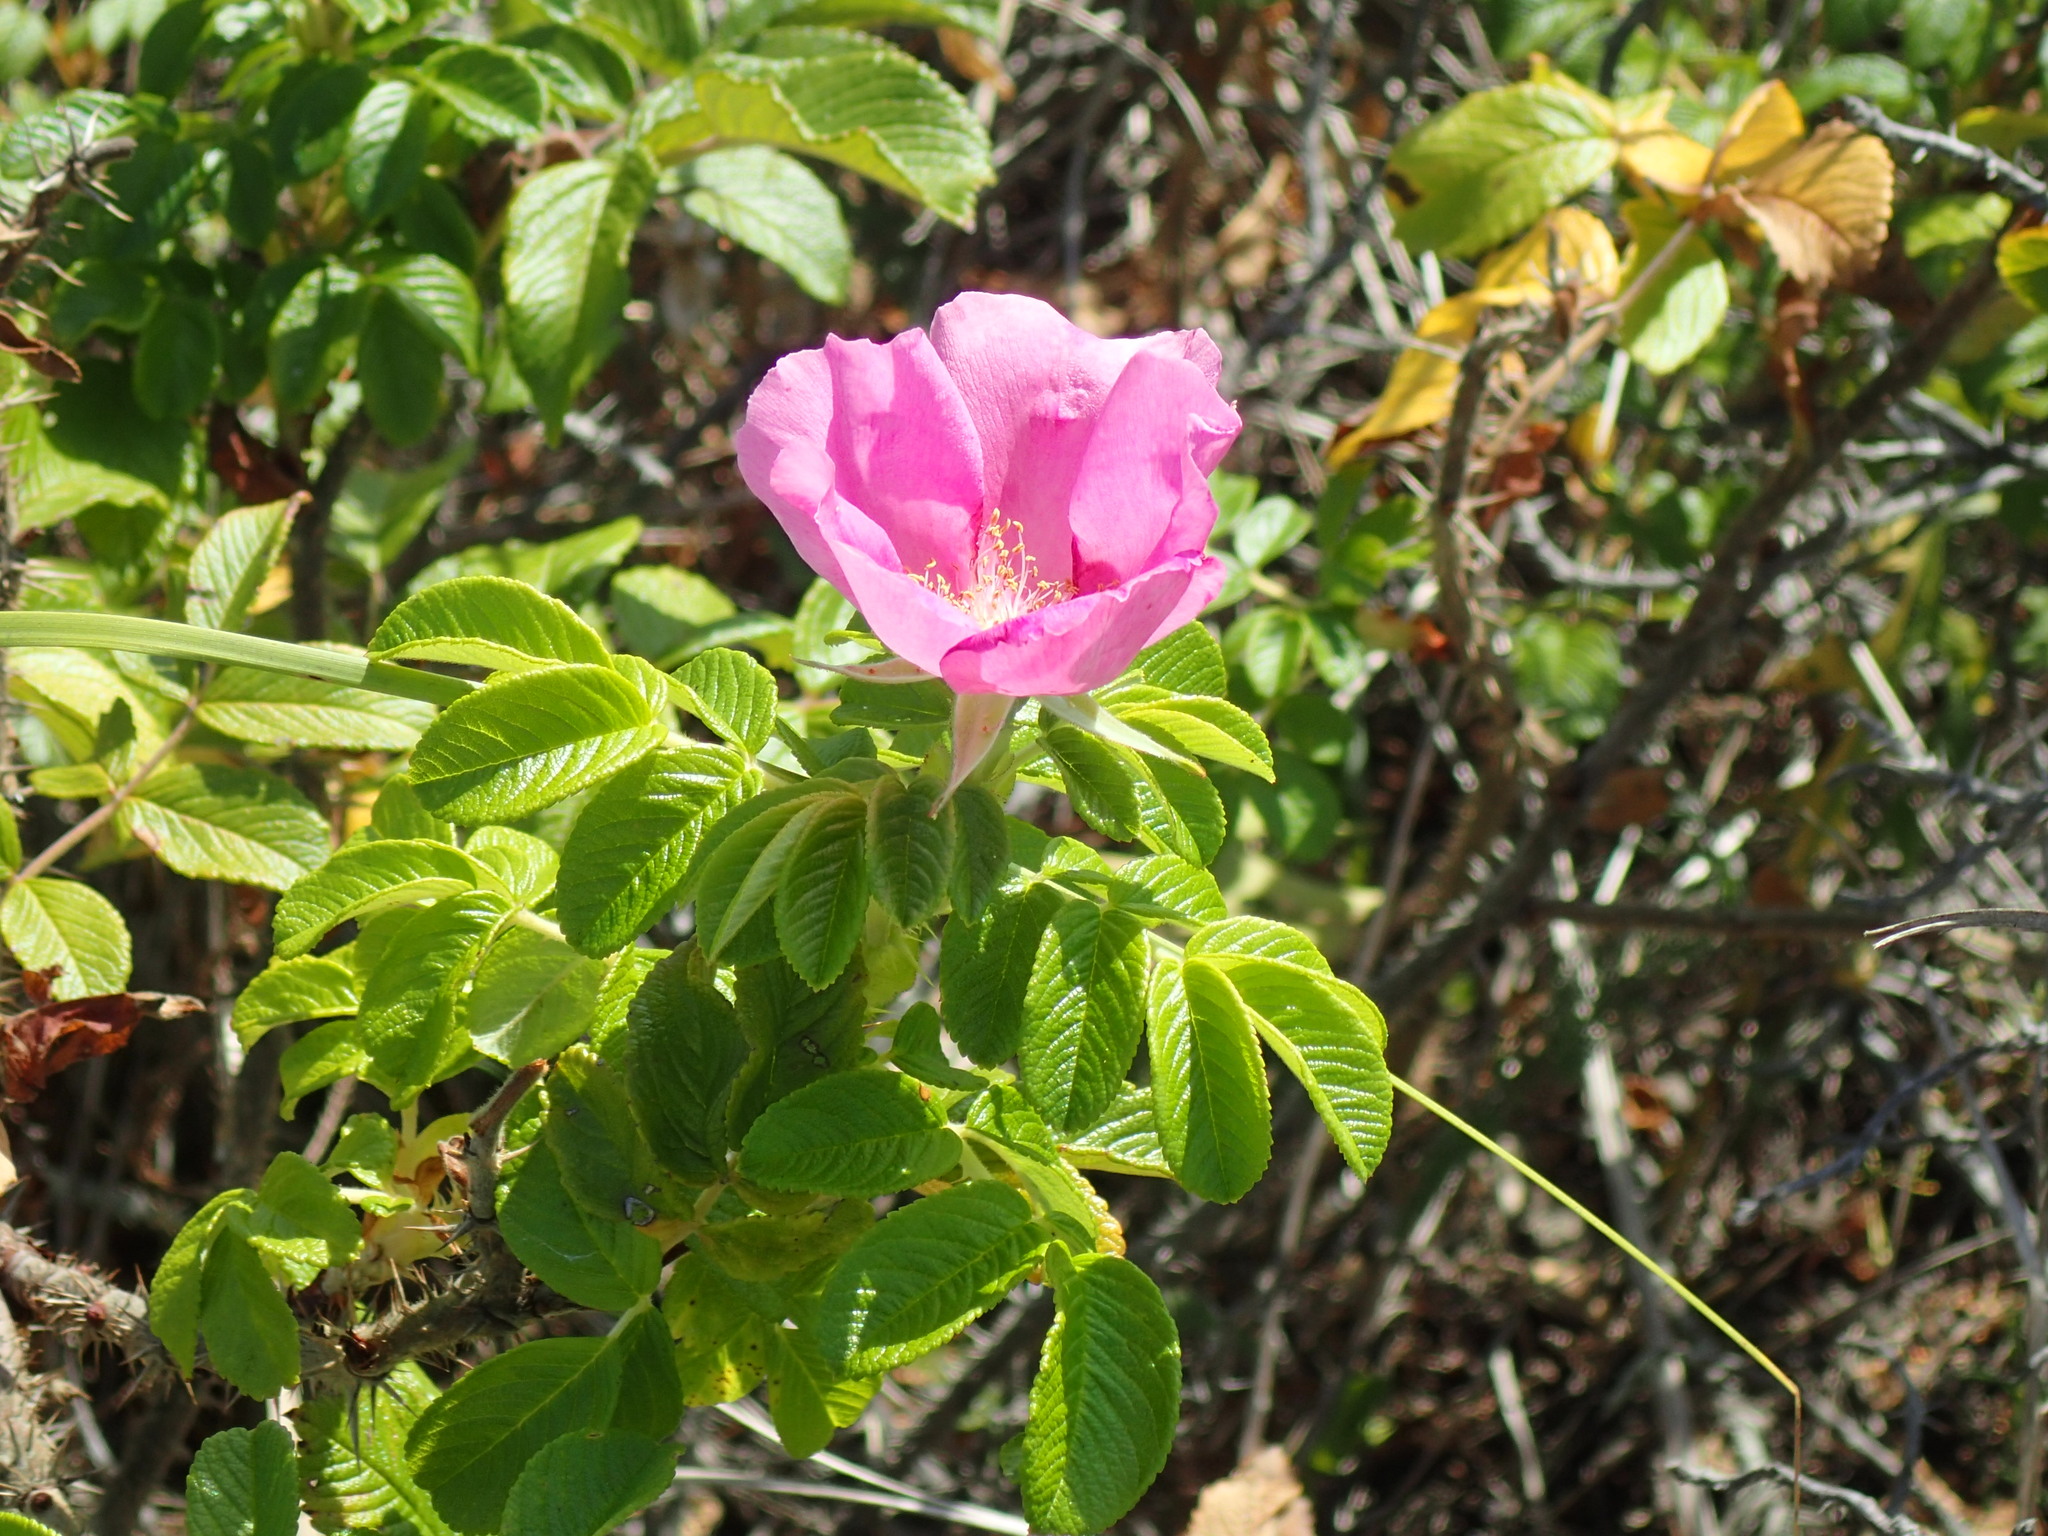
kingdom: Plantae
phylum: Tracheophyta
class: Magnoliopsida
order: Rosales
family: Rosaceae
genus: Rosa
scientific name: Rosa rugosa
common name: Japanese rose
